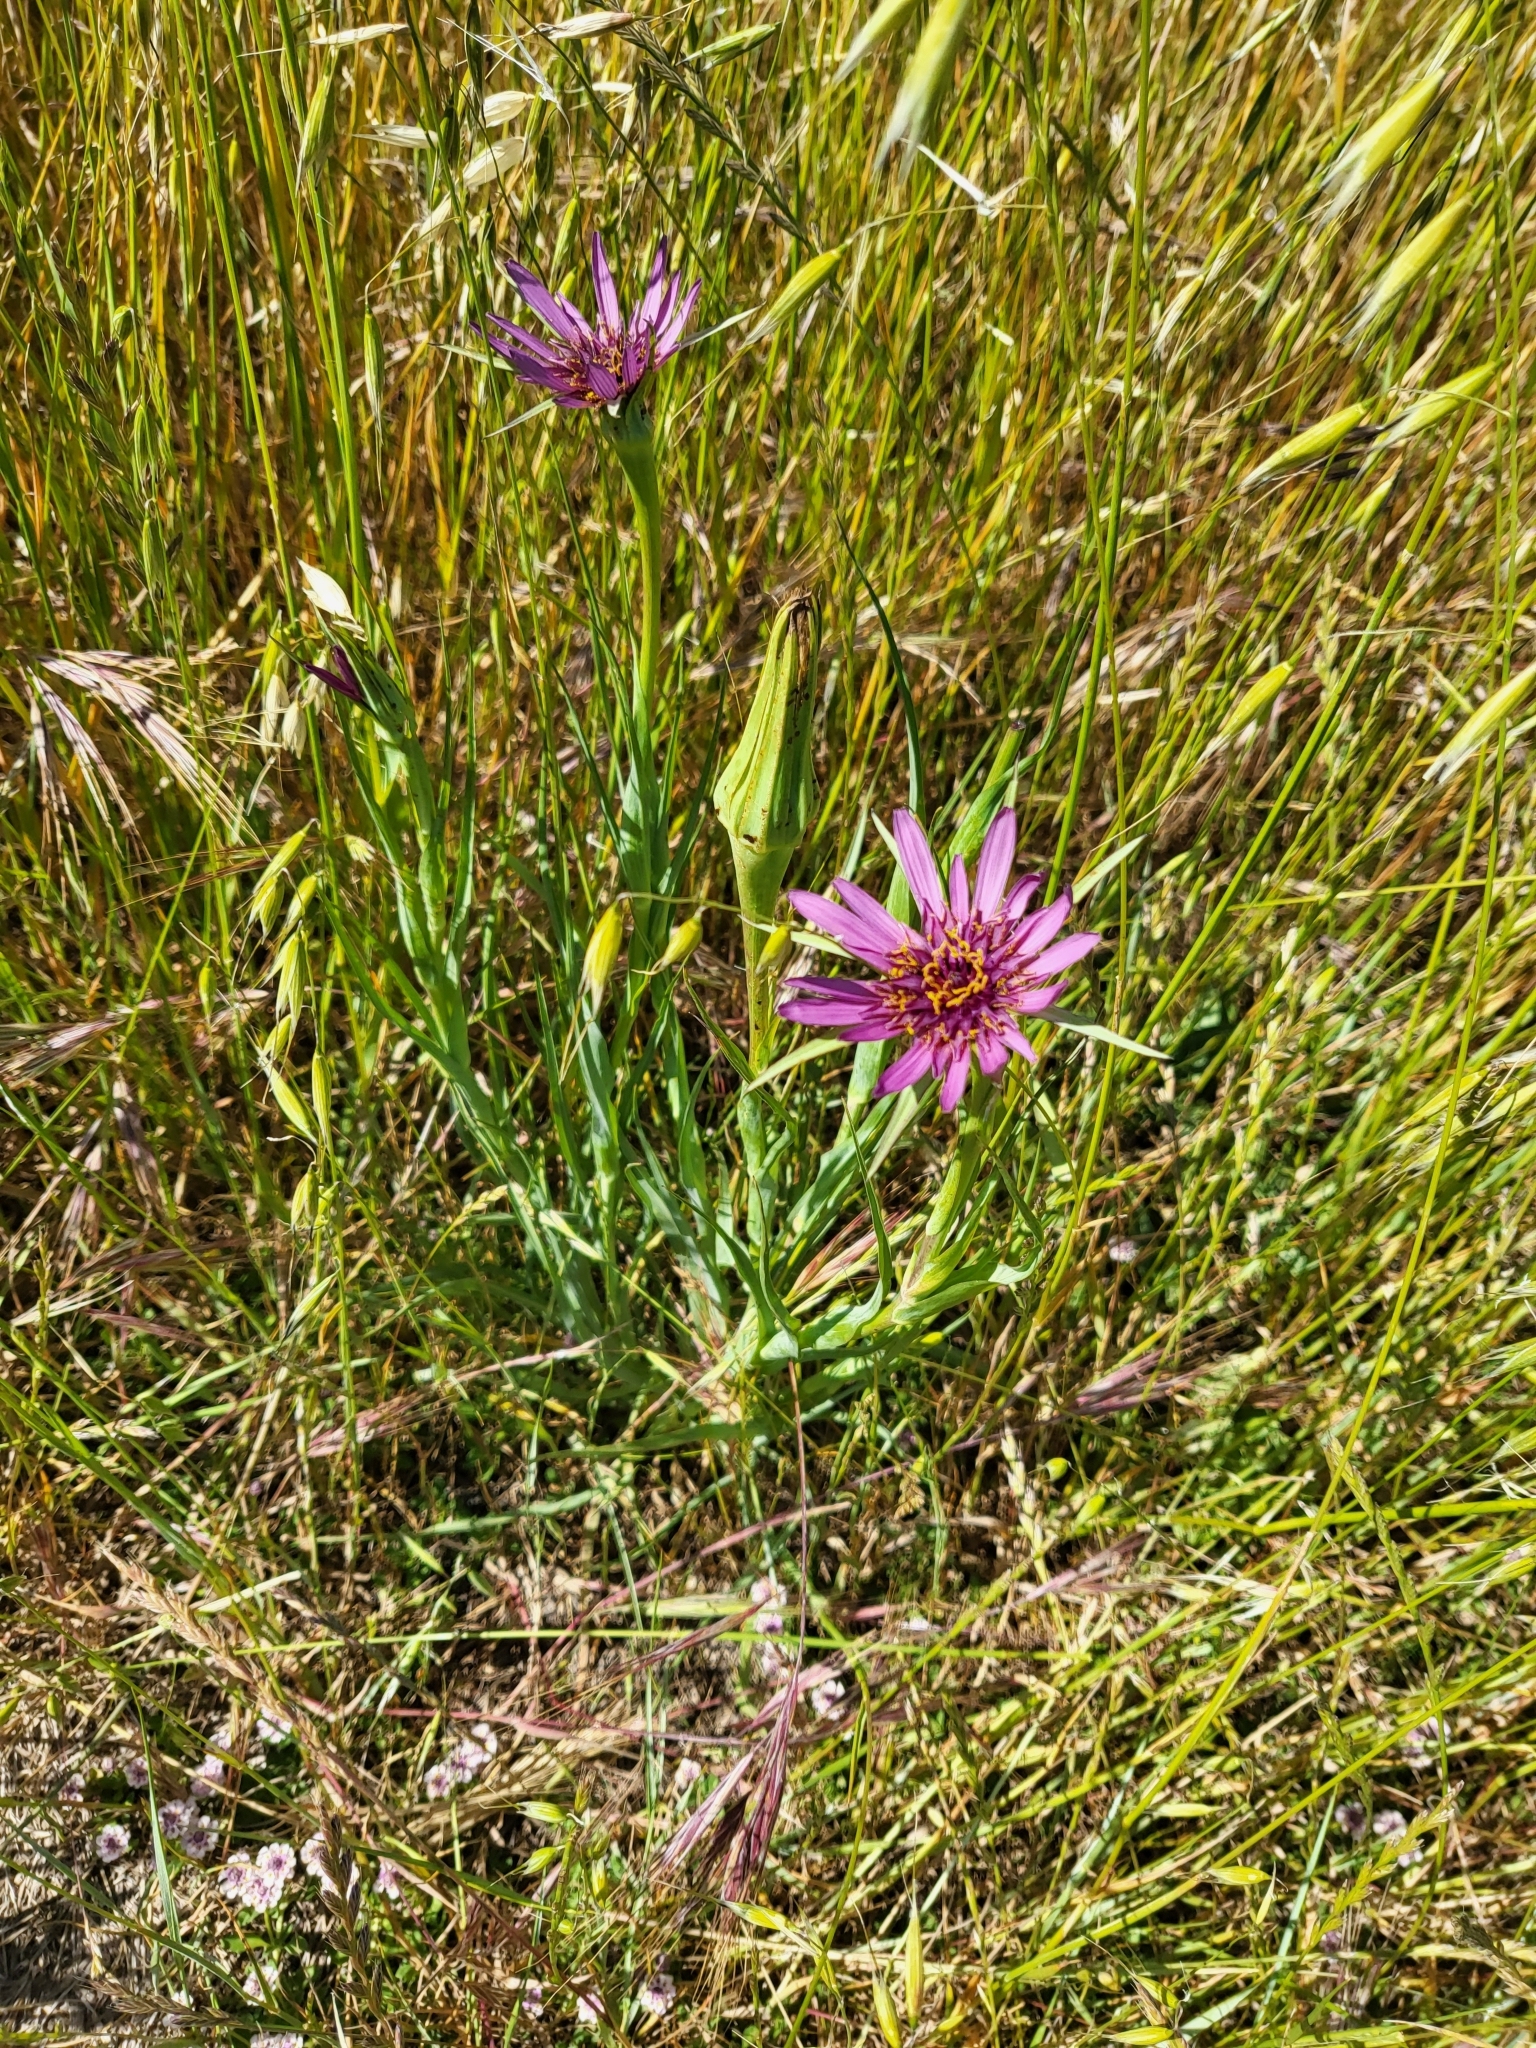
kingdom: Plantae
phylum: Tracheophyta
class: Magnoliopsida
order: Asterales
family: Asteraceae
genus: Tragopogon
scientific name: Tragopogon porrifolius
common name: Salsify
